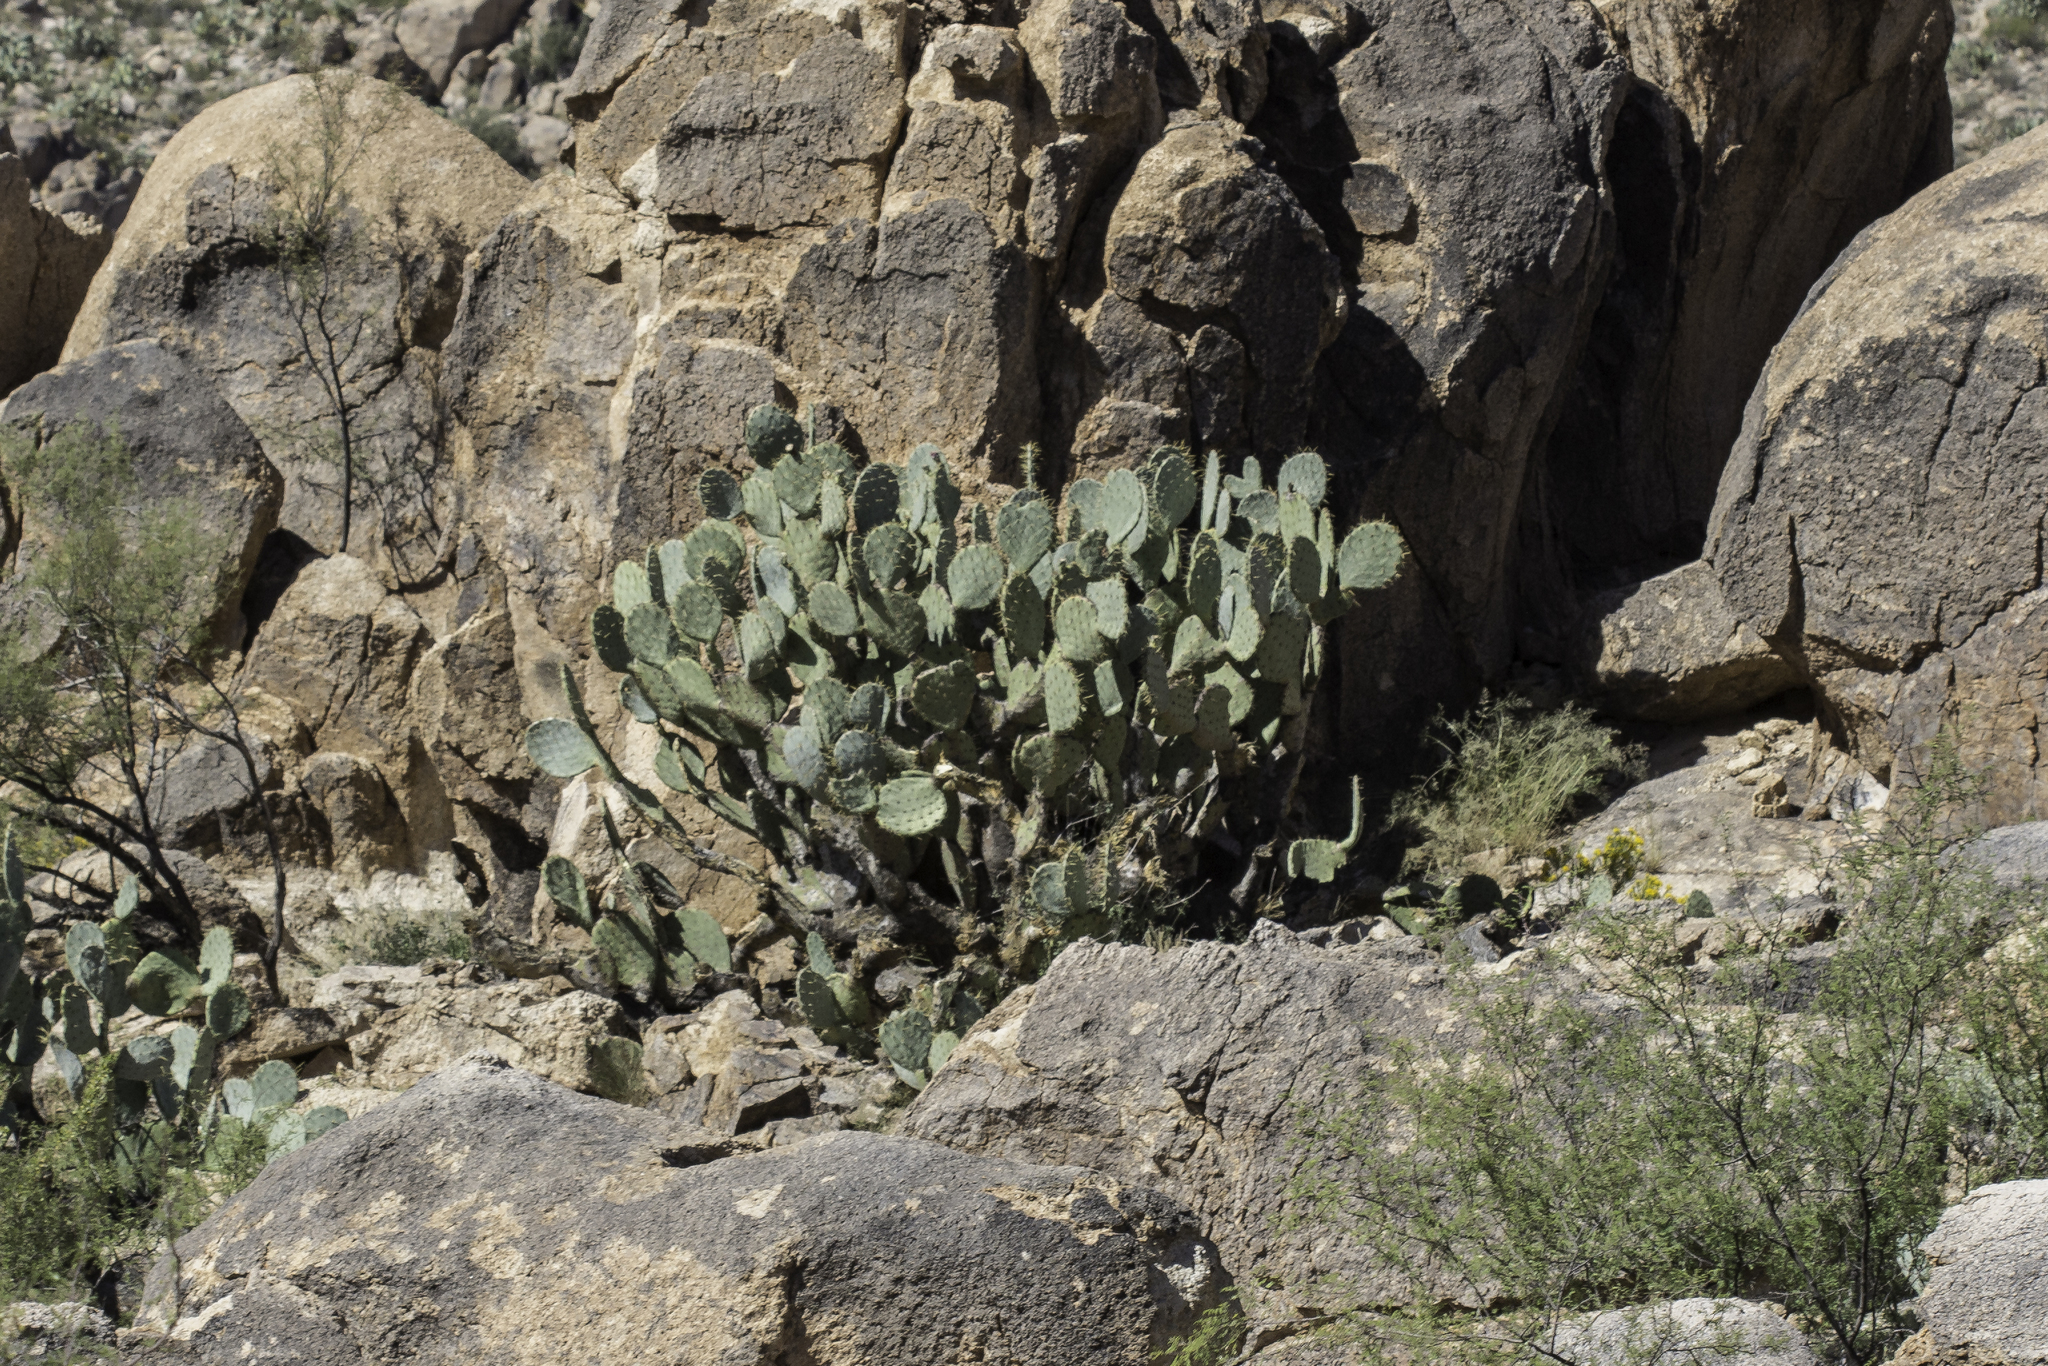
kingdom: Plantae
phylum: Tracheophyta
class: Magnoliopsida
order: Caryophyllales
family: Cactaceae
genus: Opuntia
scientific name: Opuntia orbiculata
